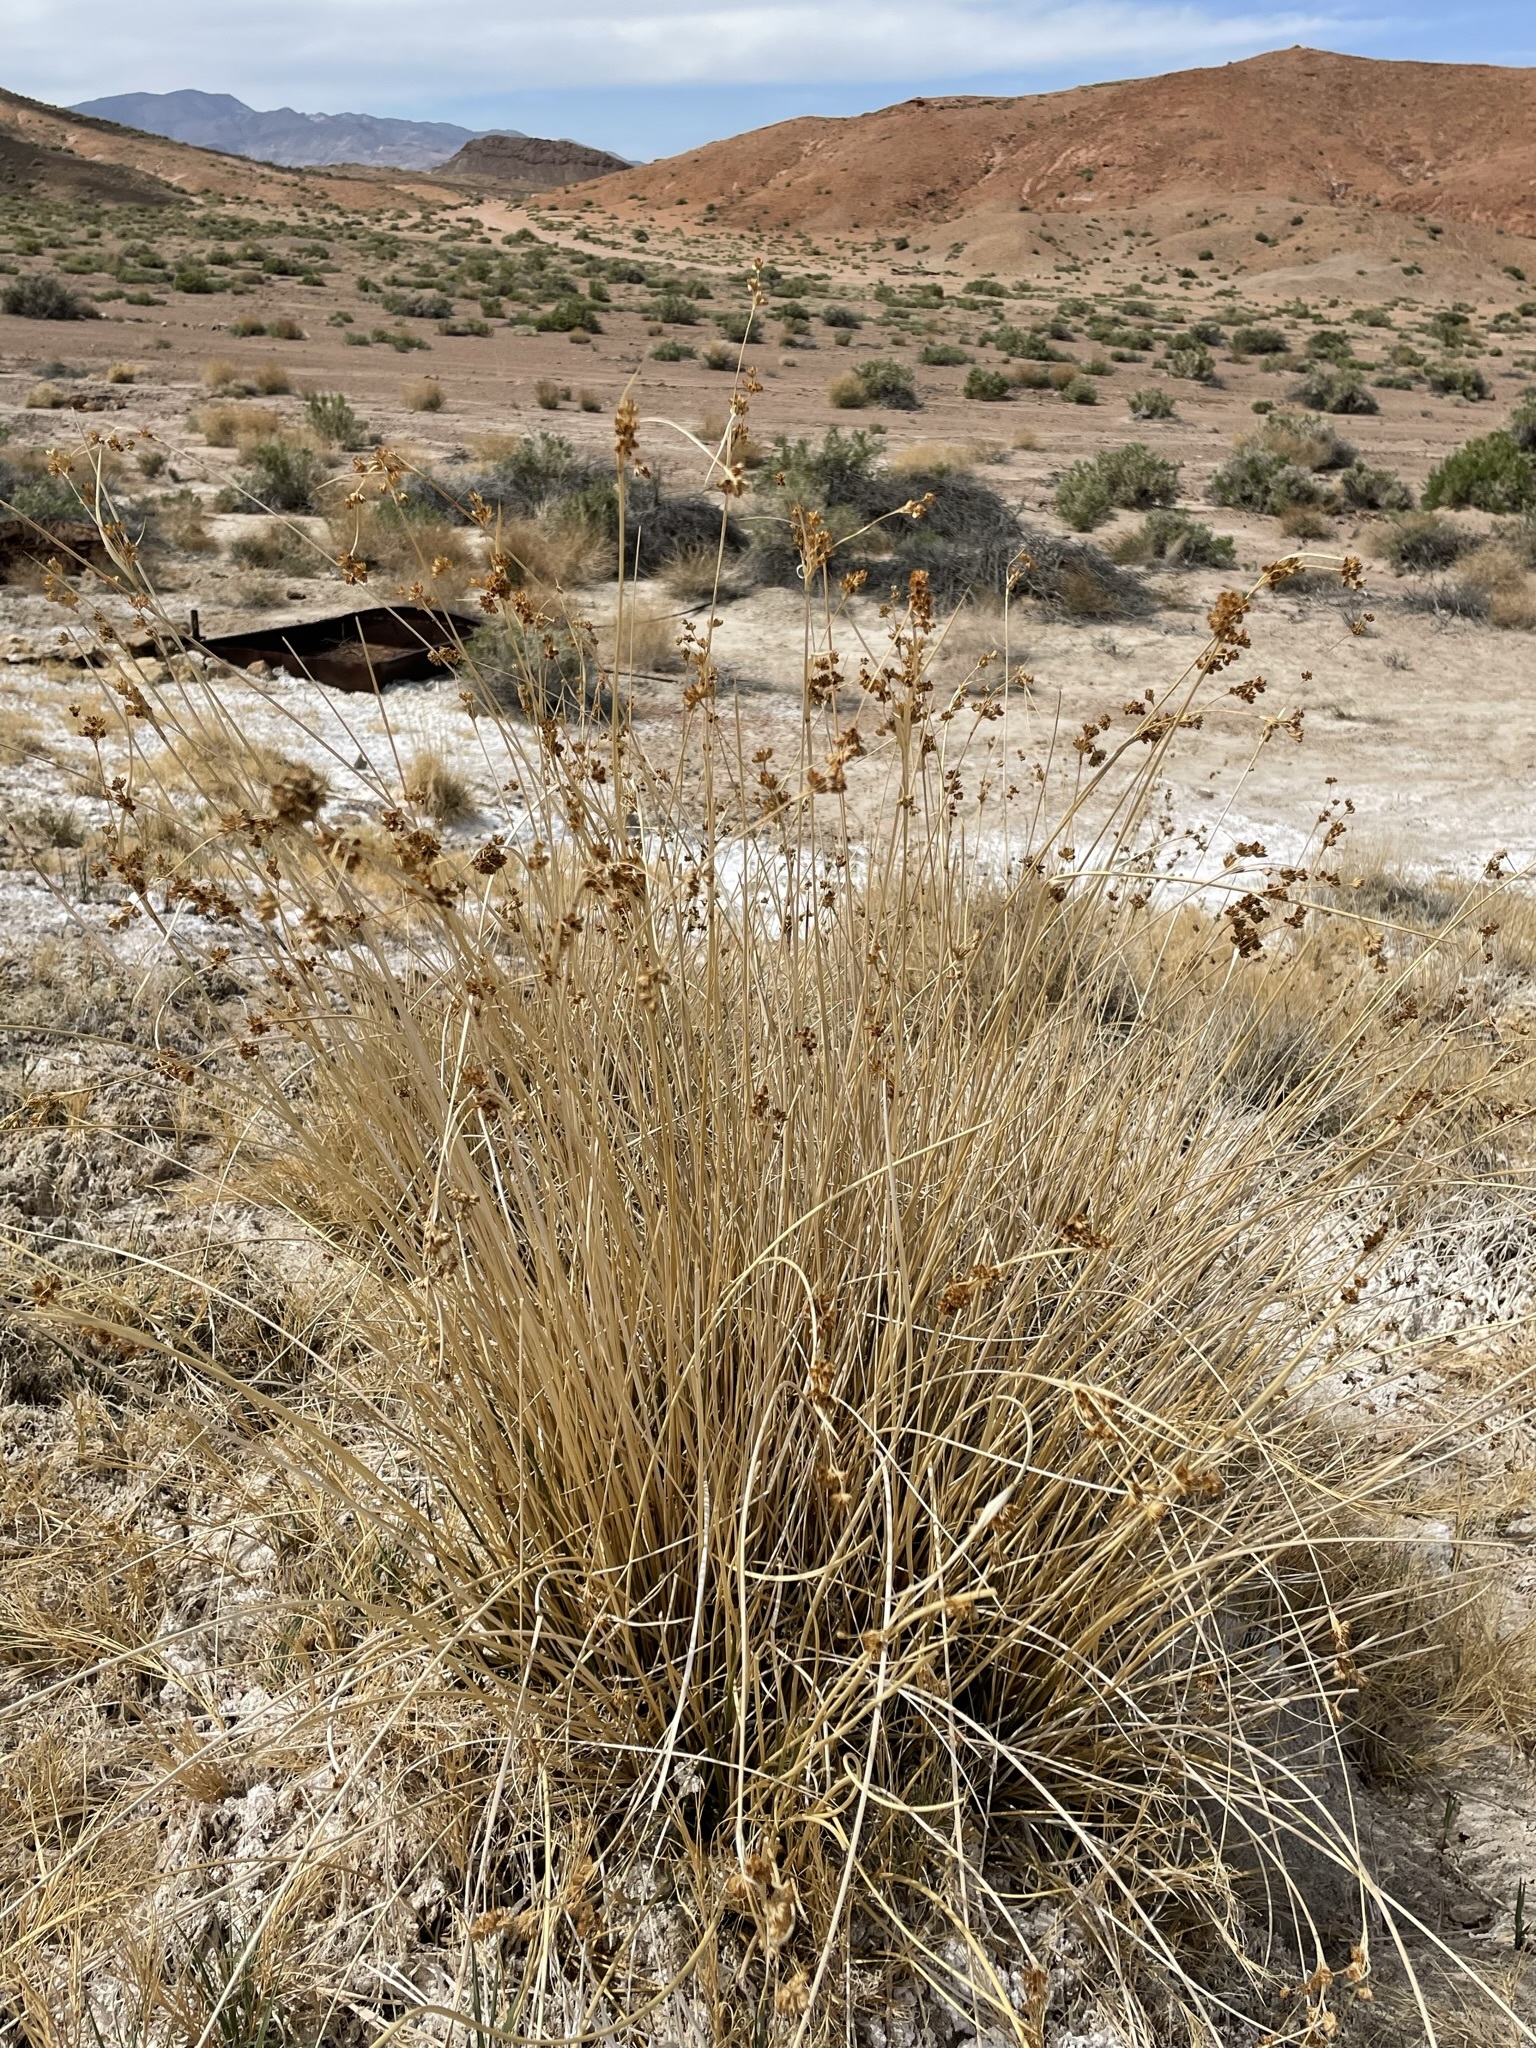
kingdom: Plantae
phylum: Tracheophyta
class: Liliopsida
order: Poales
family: Juncaceae
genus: Juncus
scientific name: Juncus cooperi
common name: Cooper's rush
